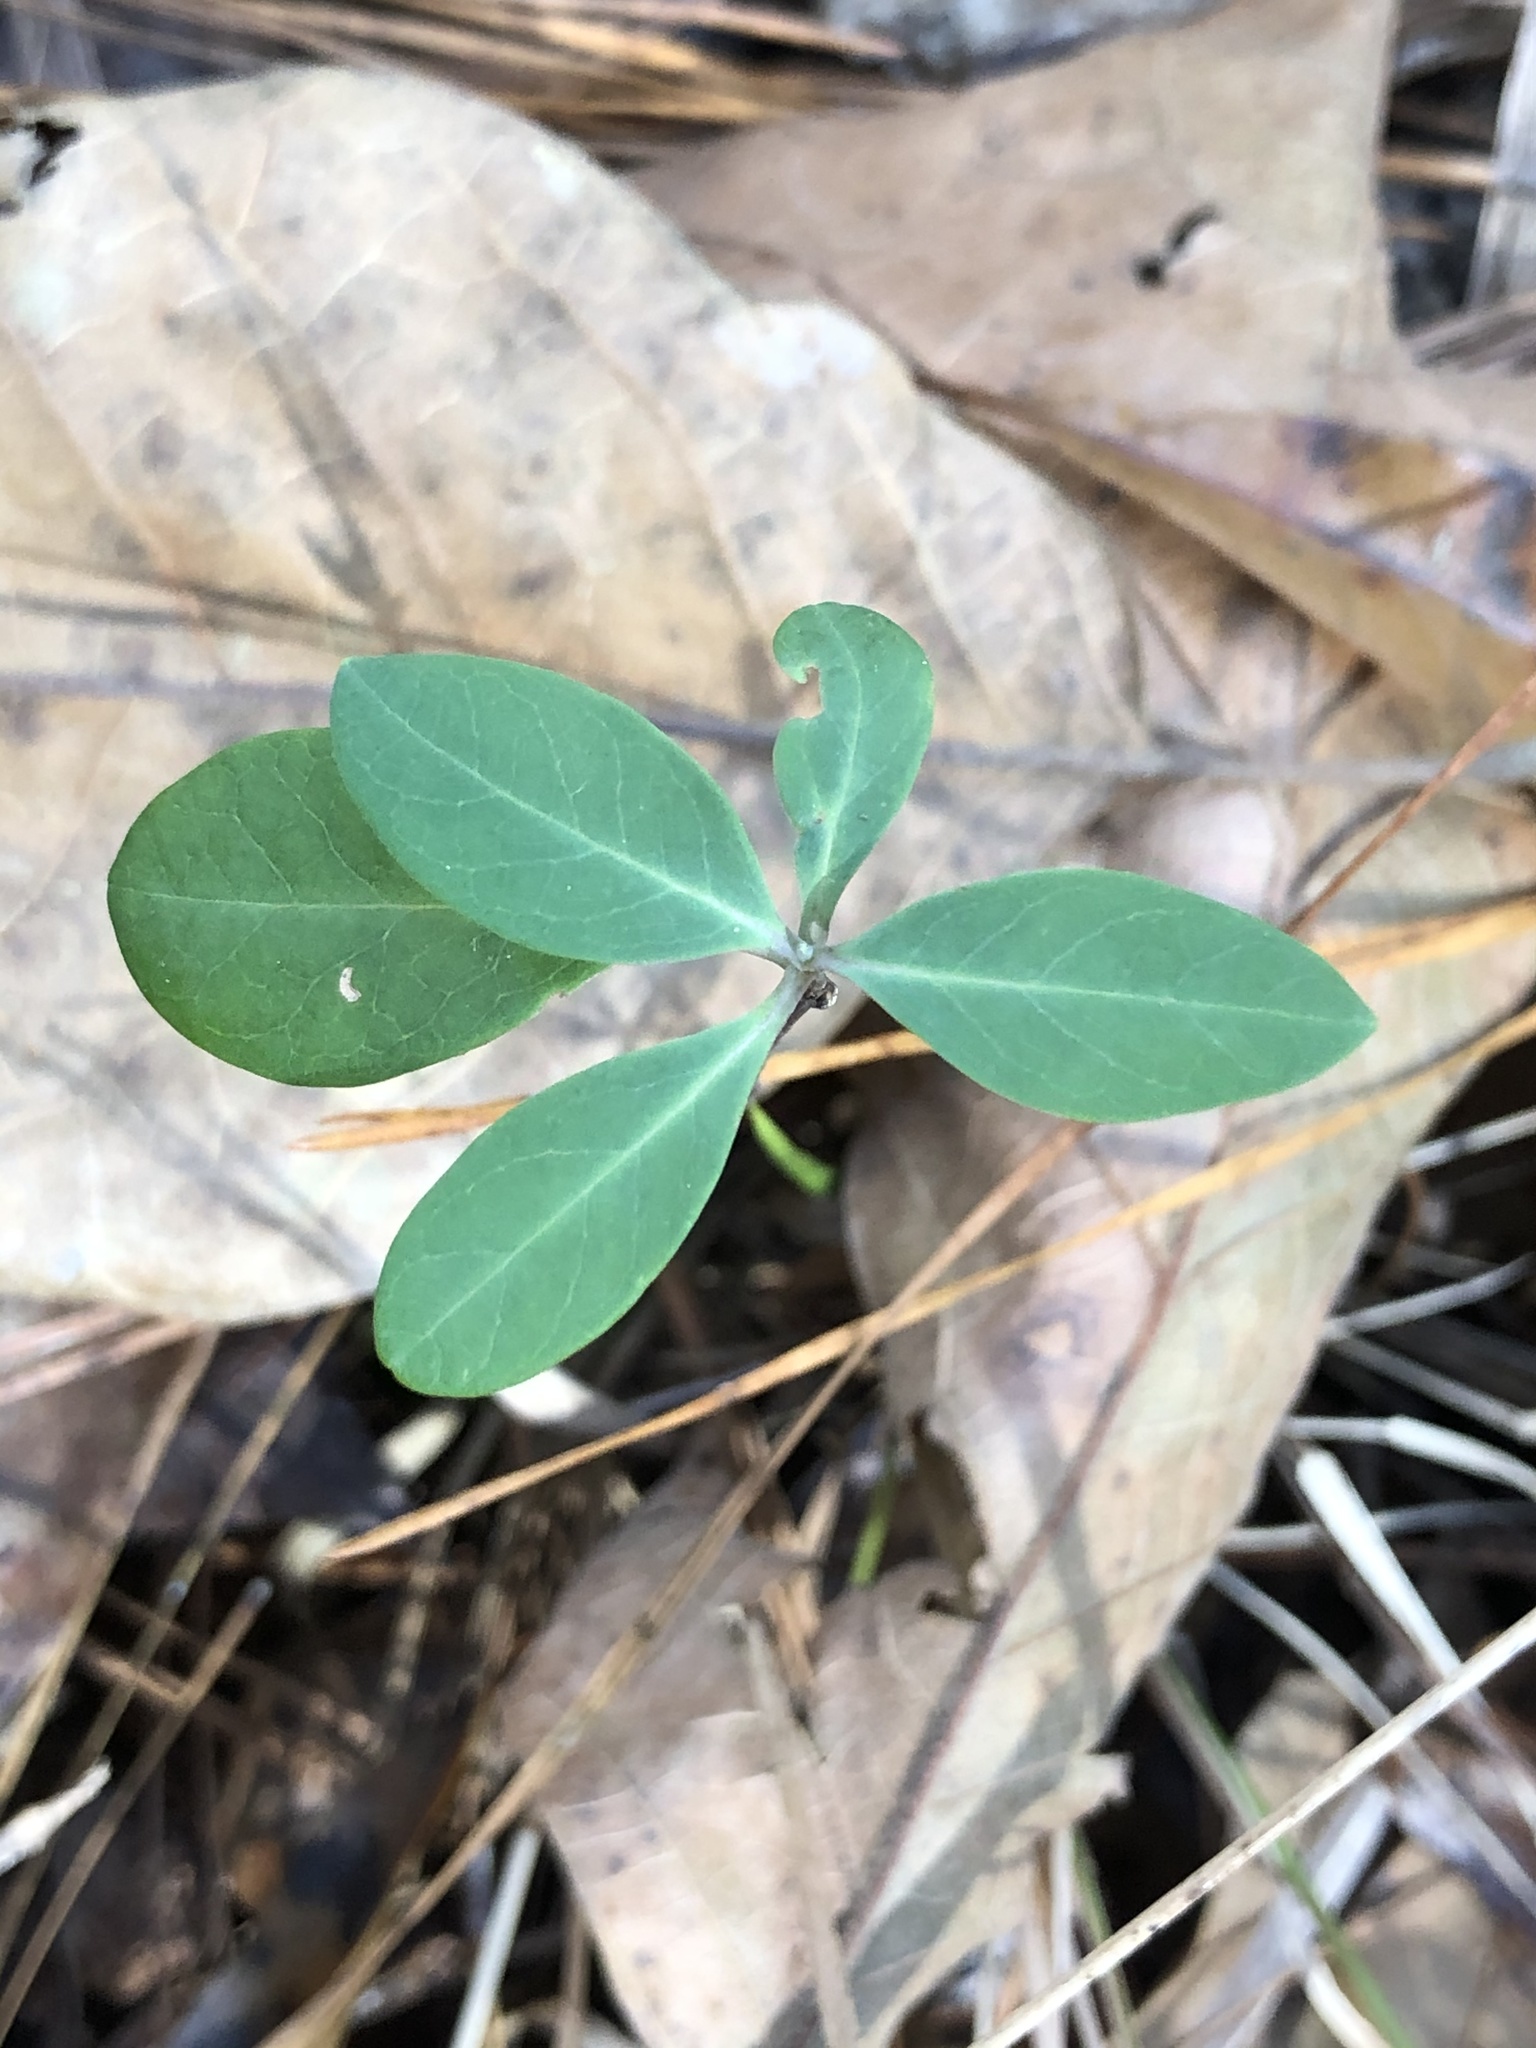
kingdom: Plantae
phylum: Tracheophyta
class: Magnoliopsida
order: Dipsacales
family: Caprifoliaceae
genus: Lonicera
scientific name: Lonicera sempervirens
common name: Coral honeysuckle
